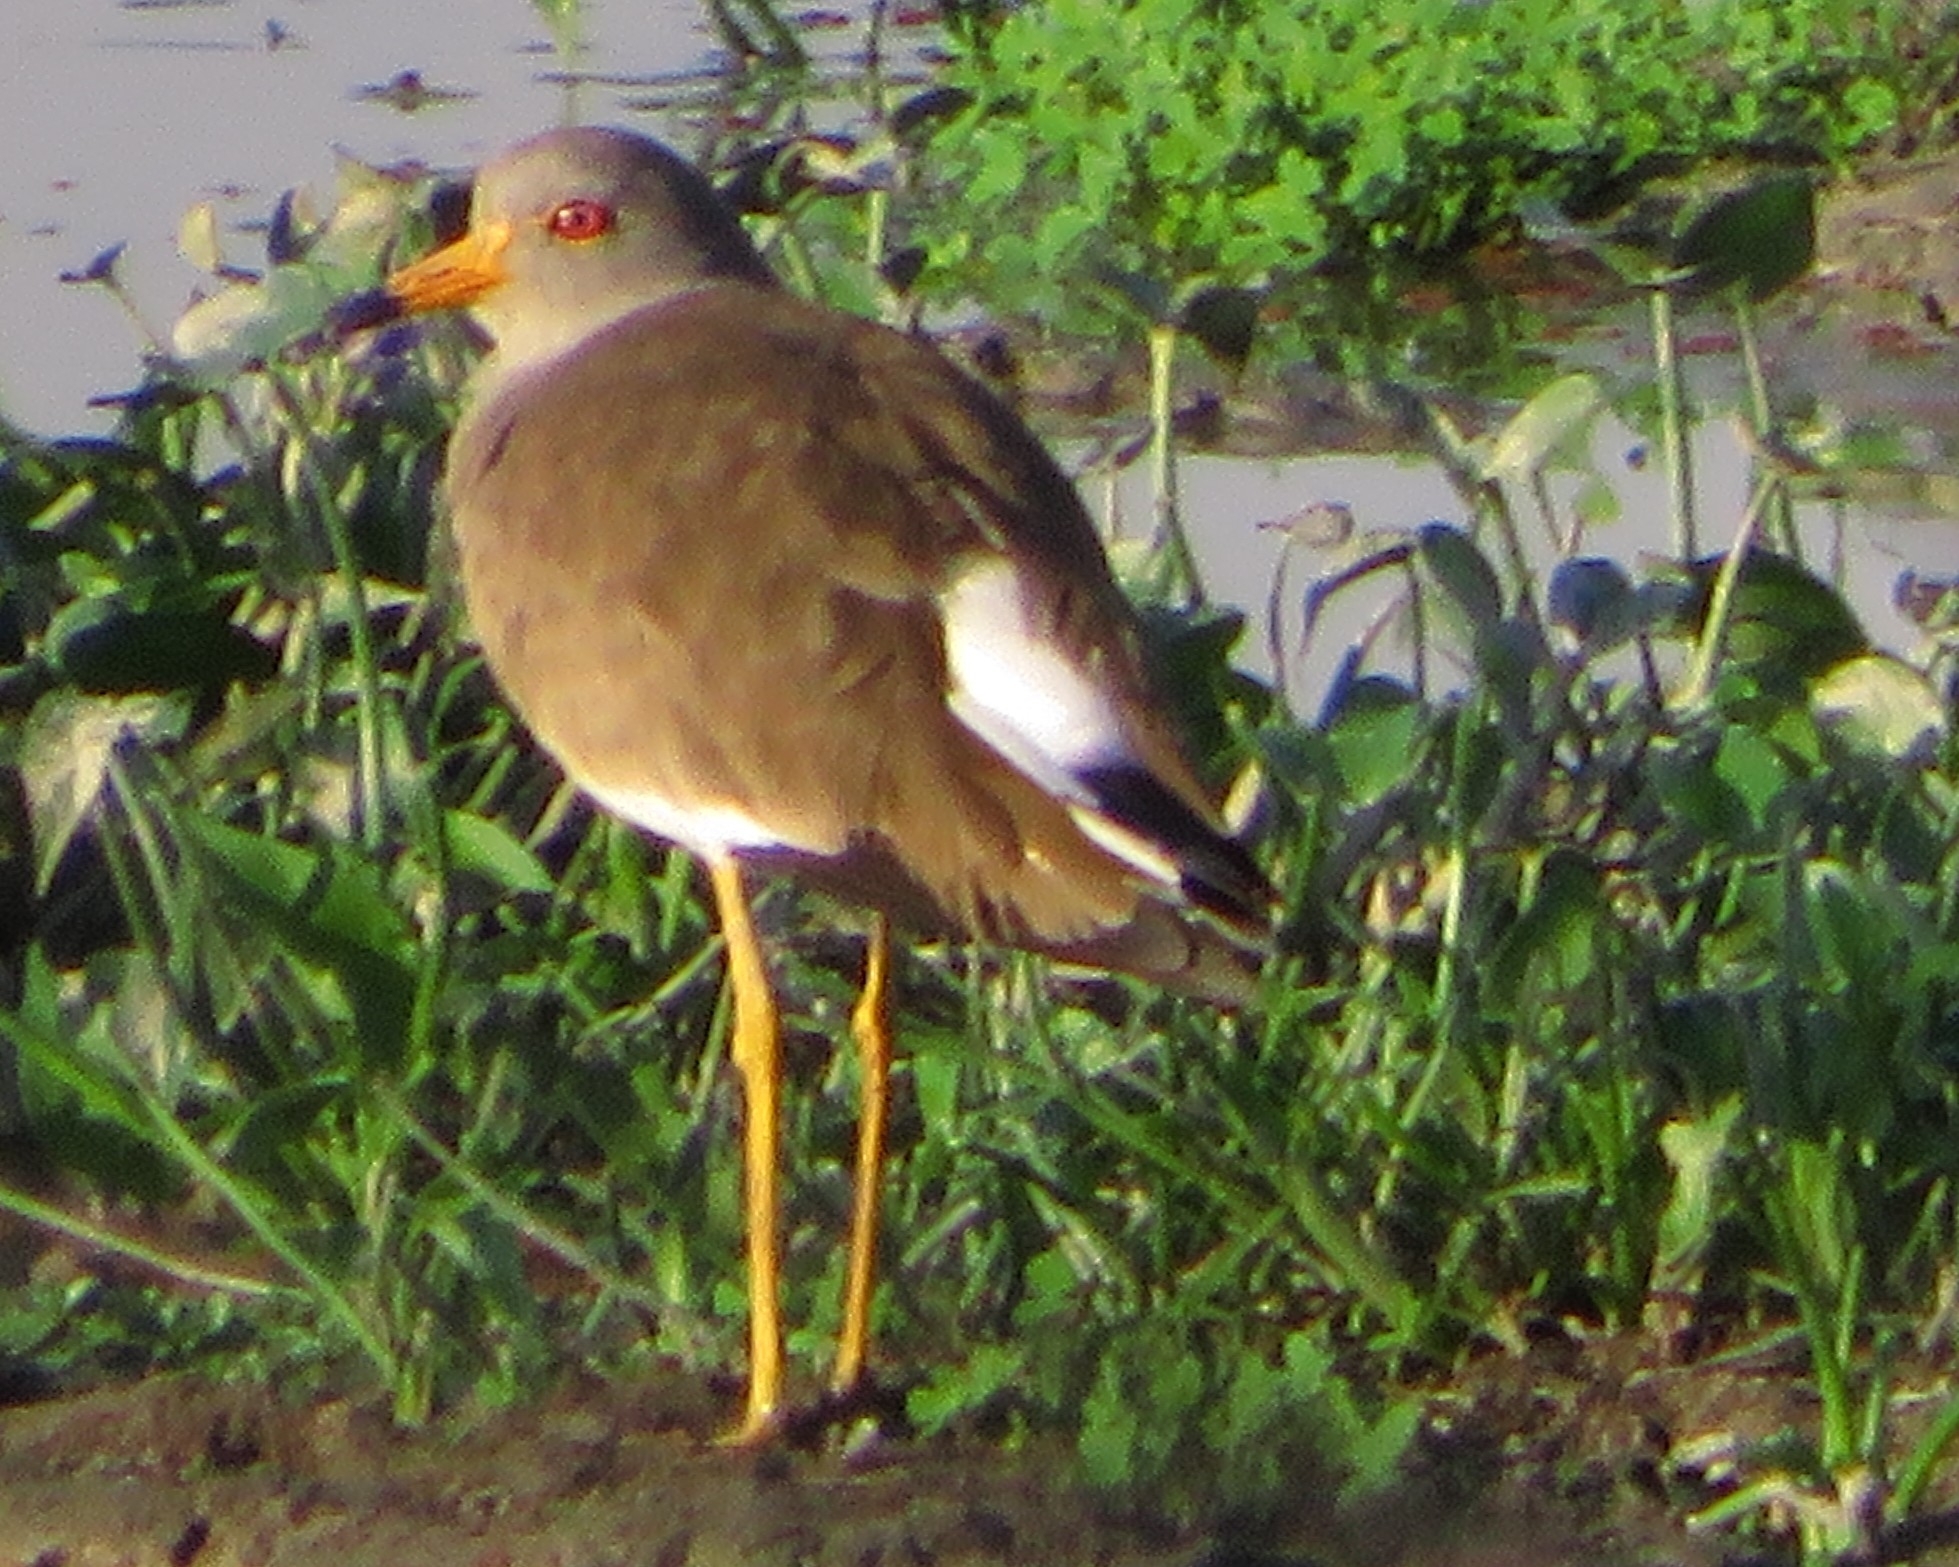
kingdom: Animalia
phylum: Chordata
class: Aves
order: Charadriiformes
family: Charadriidae
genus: Vanellus
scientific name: Vanellus cinereus
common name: Grey-headed lapwing
